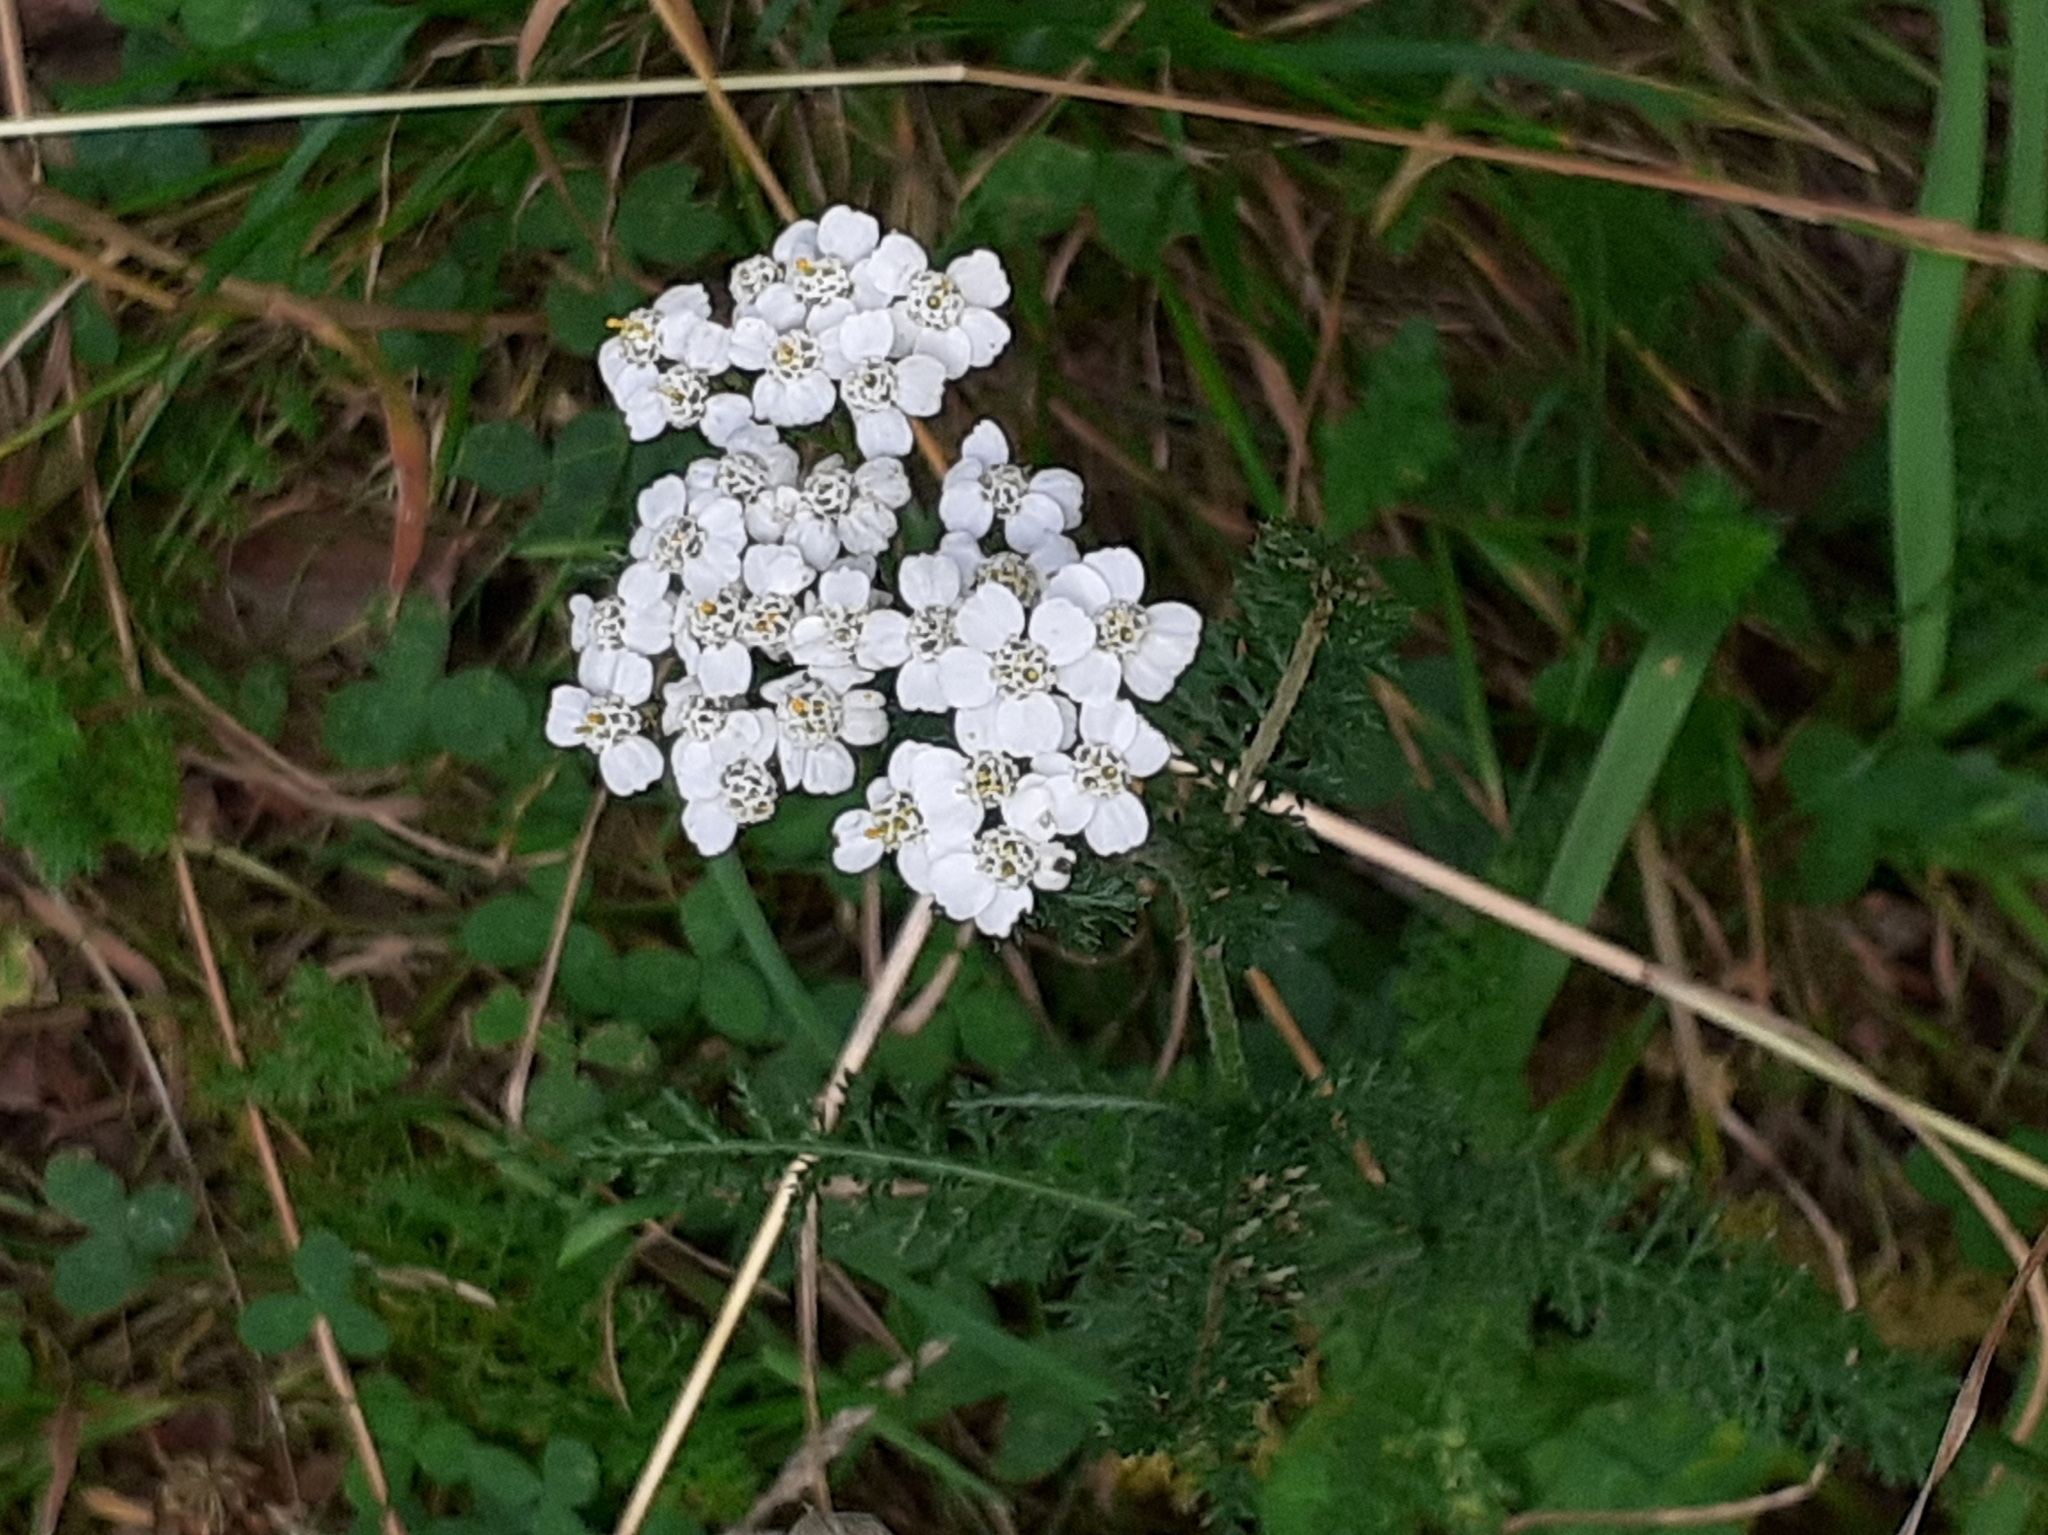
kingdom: Plantae
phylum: Tracheophyta
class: Magnoliopsida
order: Asterales
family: Asteraceae
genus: Achillea
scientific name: Achillea millefolium
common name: Yarrow
